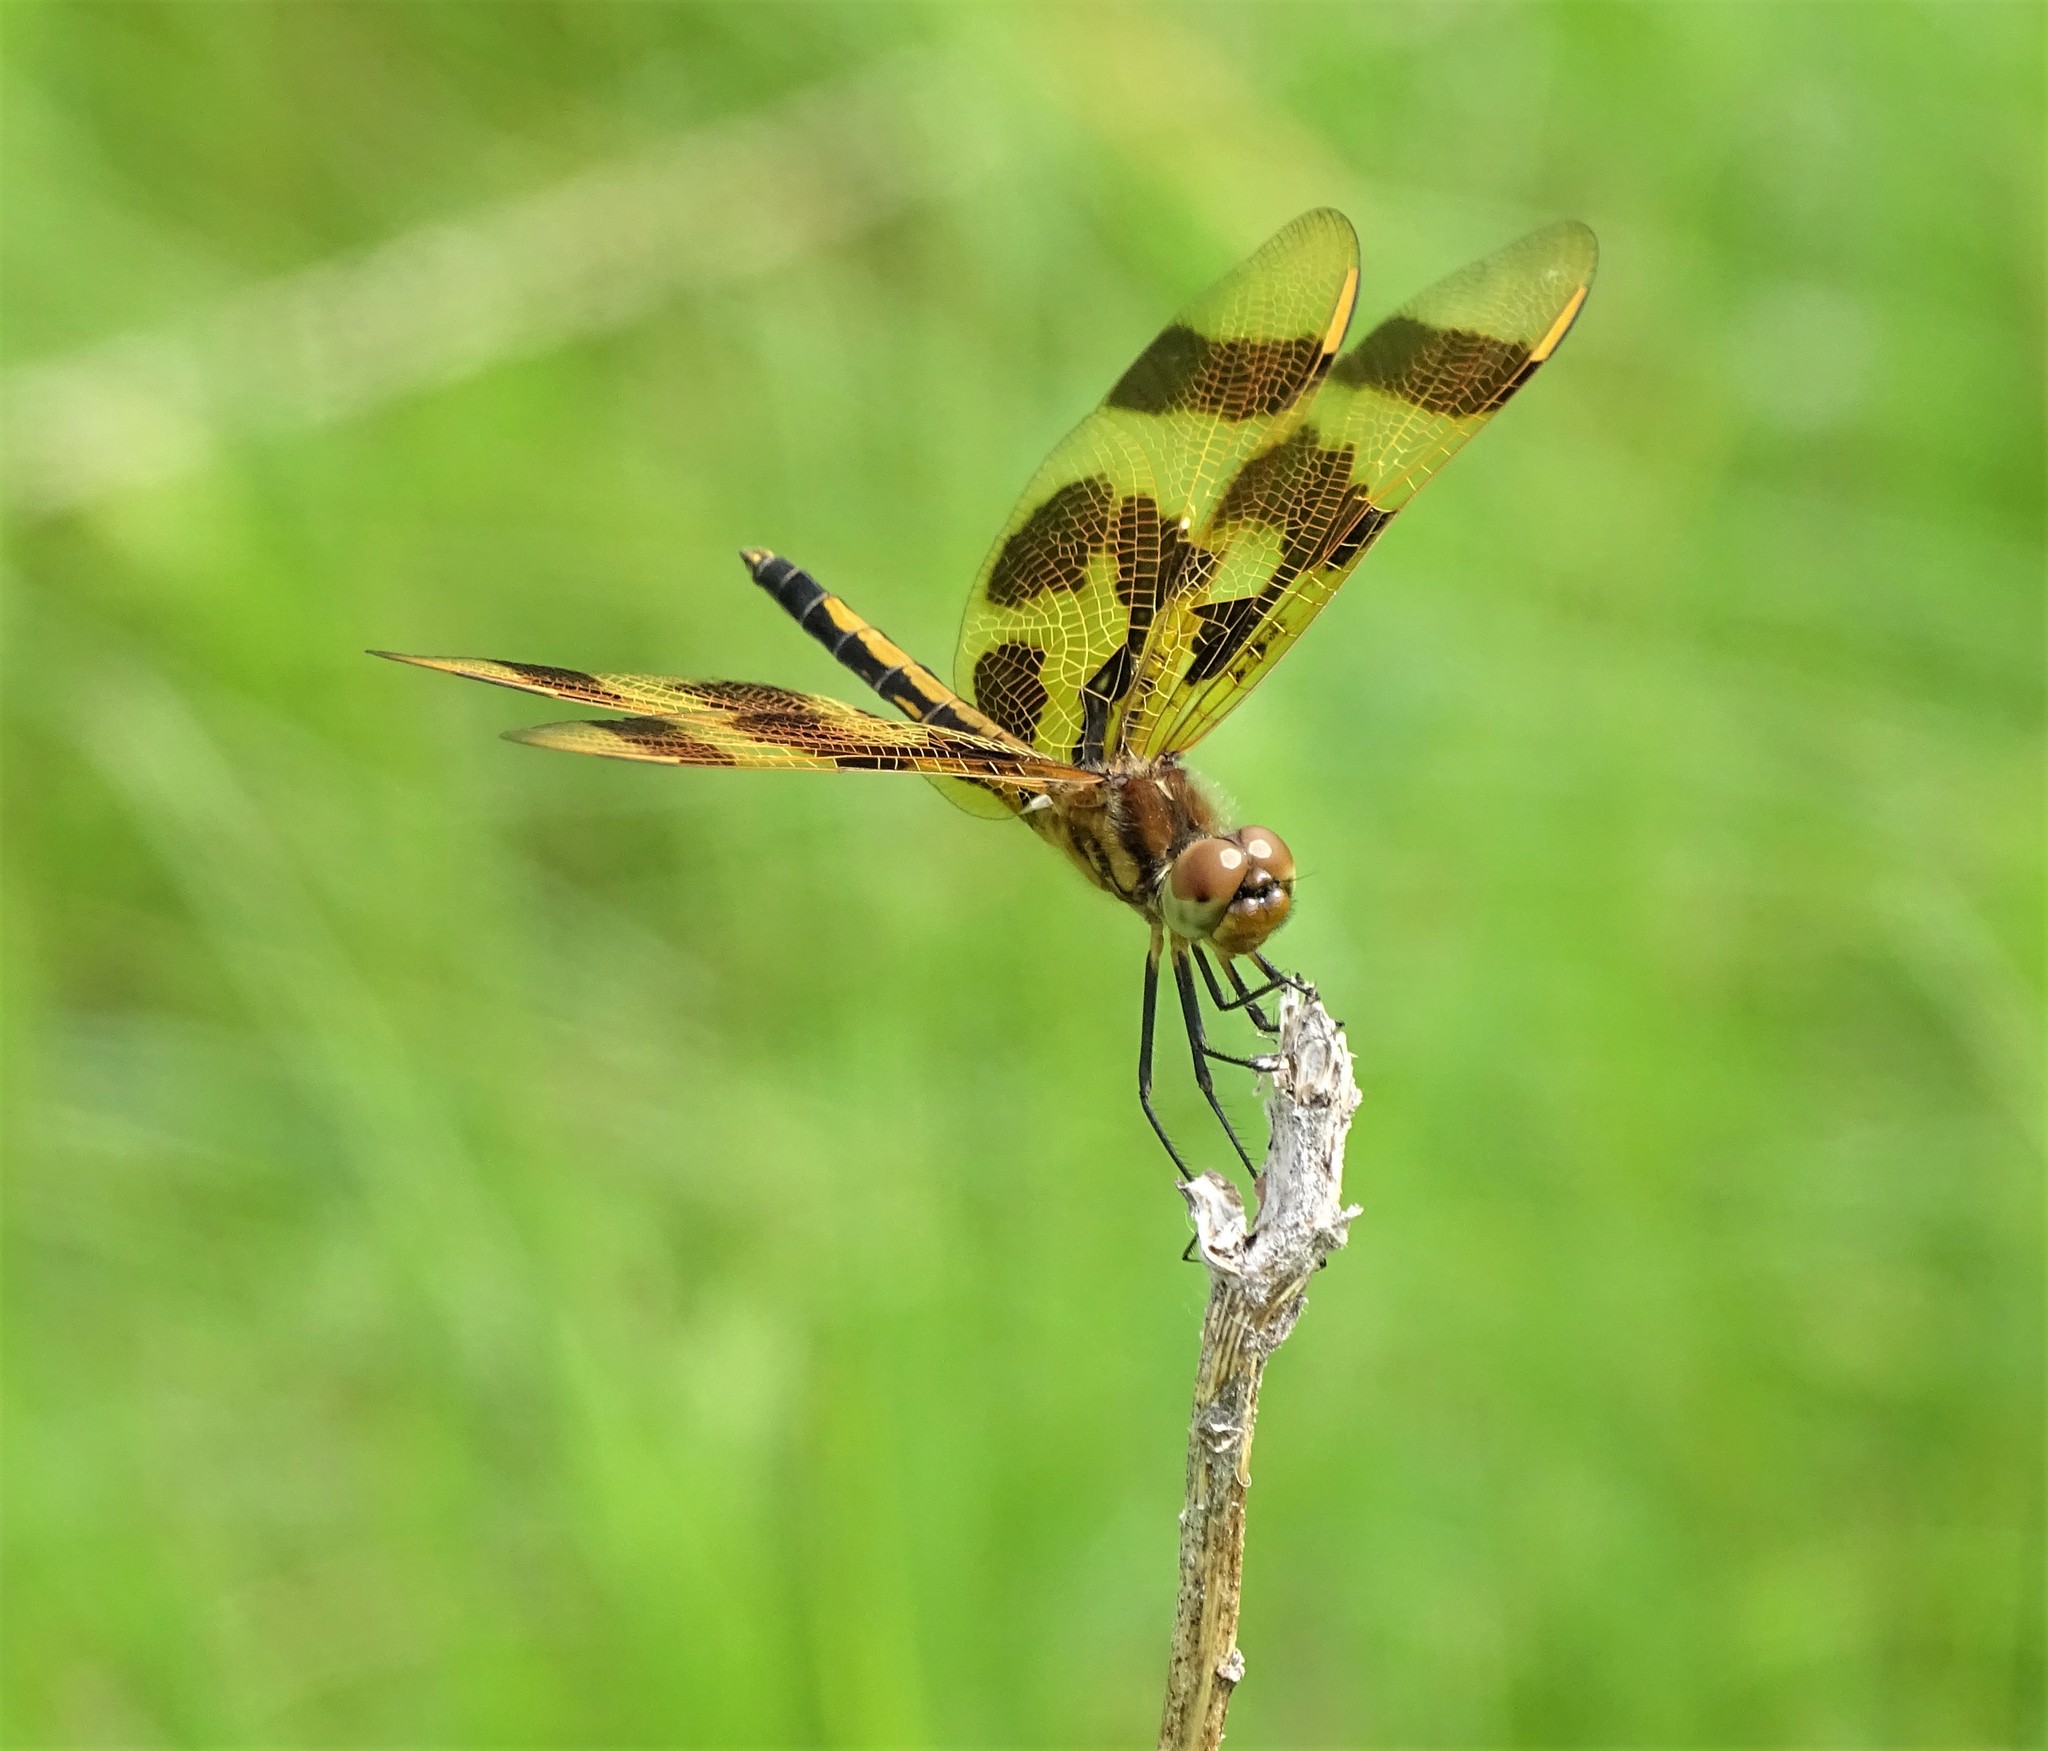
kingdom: Animalia
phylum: Arthropoda
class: Insecta
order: Odonata
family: Libellulidae
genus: Celithemis
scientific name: Celithemis eponina
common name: Halloween pennant
